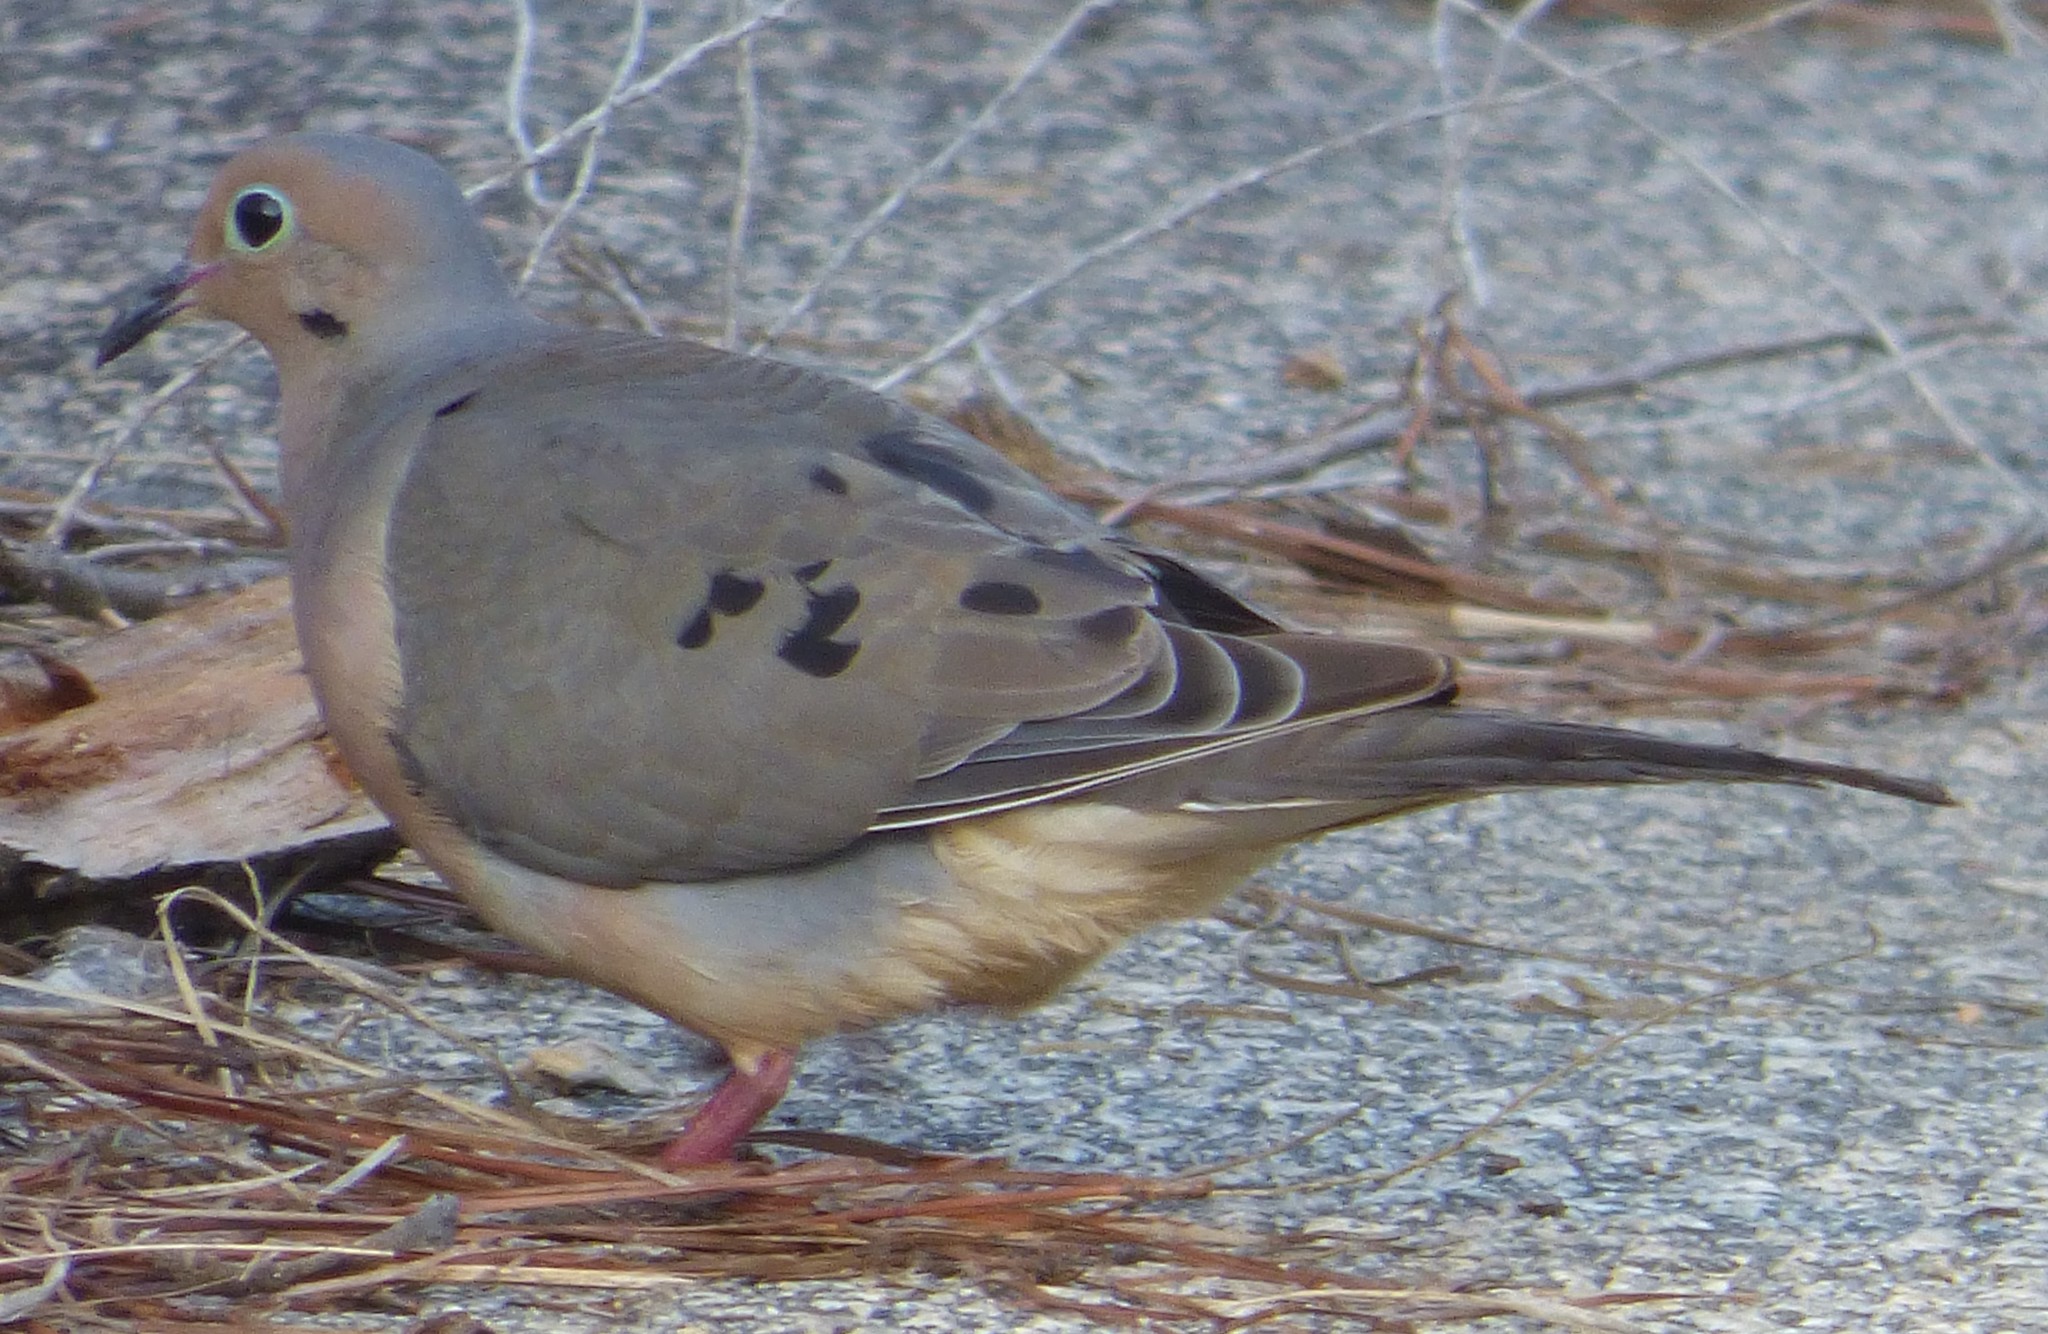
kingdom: Animalia
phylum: Chordata
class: Aves
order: Columbiformes
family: Columbidae
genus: Zenaida
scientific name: Zenaida macroura
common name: Mourning dove
